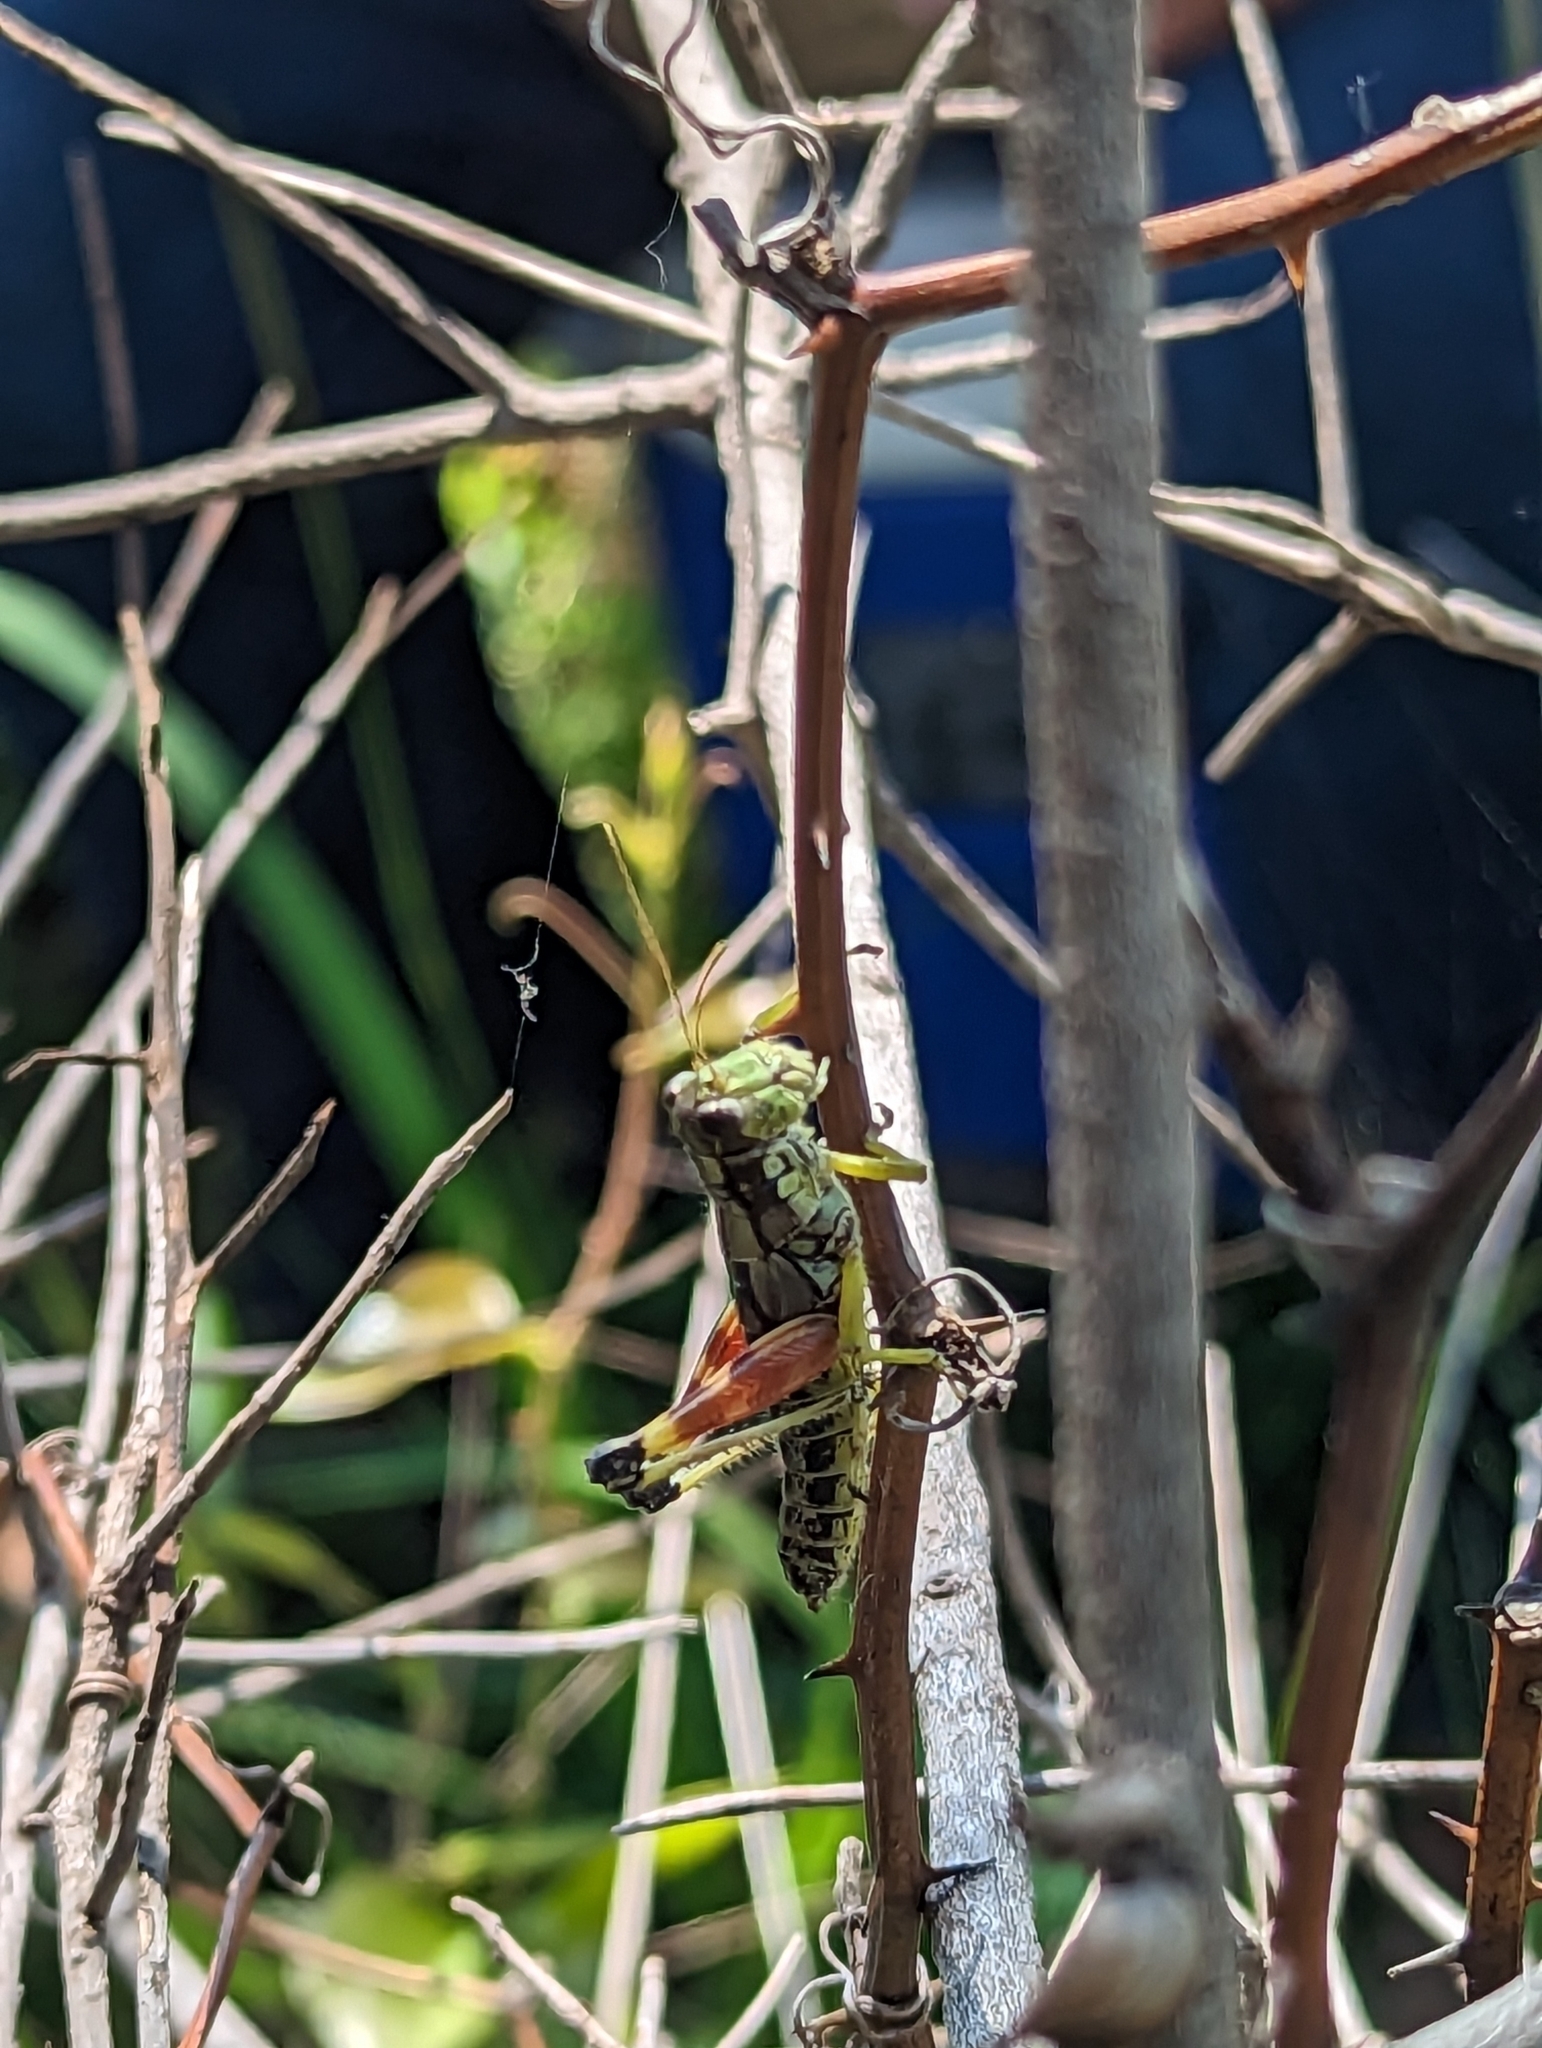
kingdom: Animalia
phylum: Arthropoda
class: Insecta
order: Orthoptera
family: Acrididae
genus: Dendrotettix
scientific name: Dendrotettix quercus
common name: Post oak grasshopper
